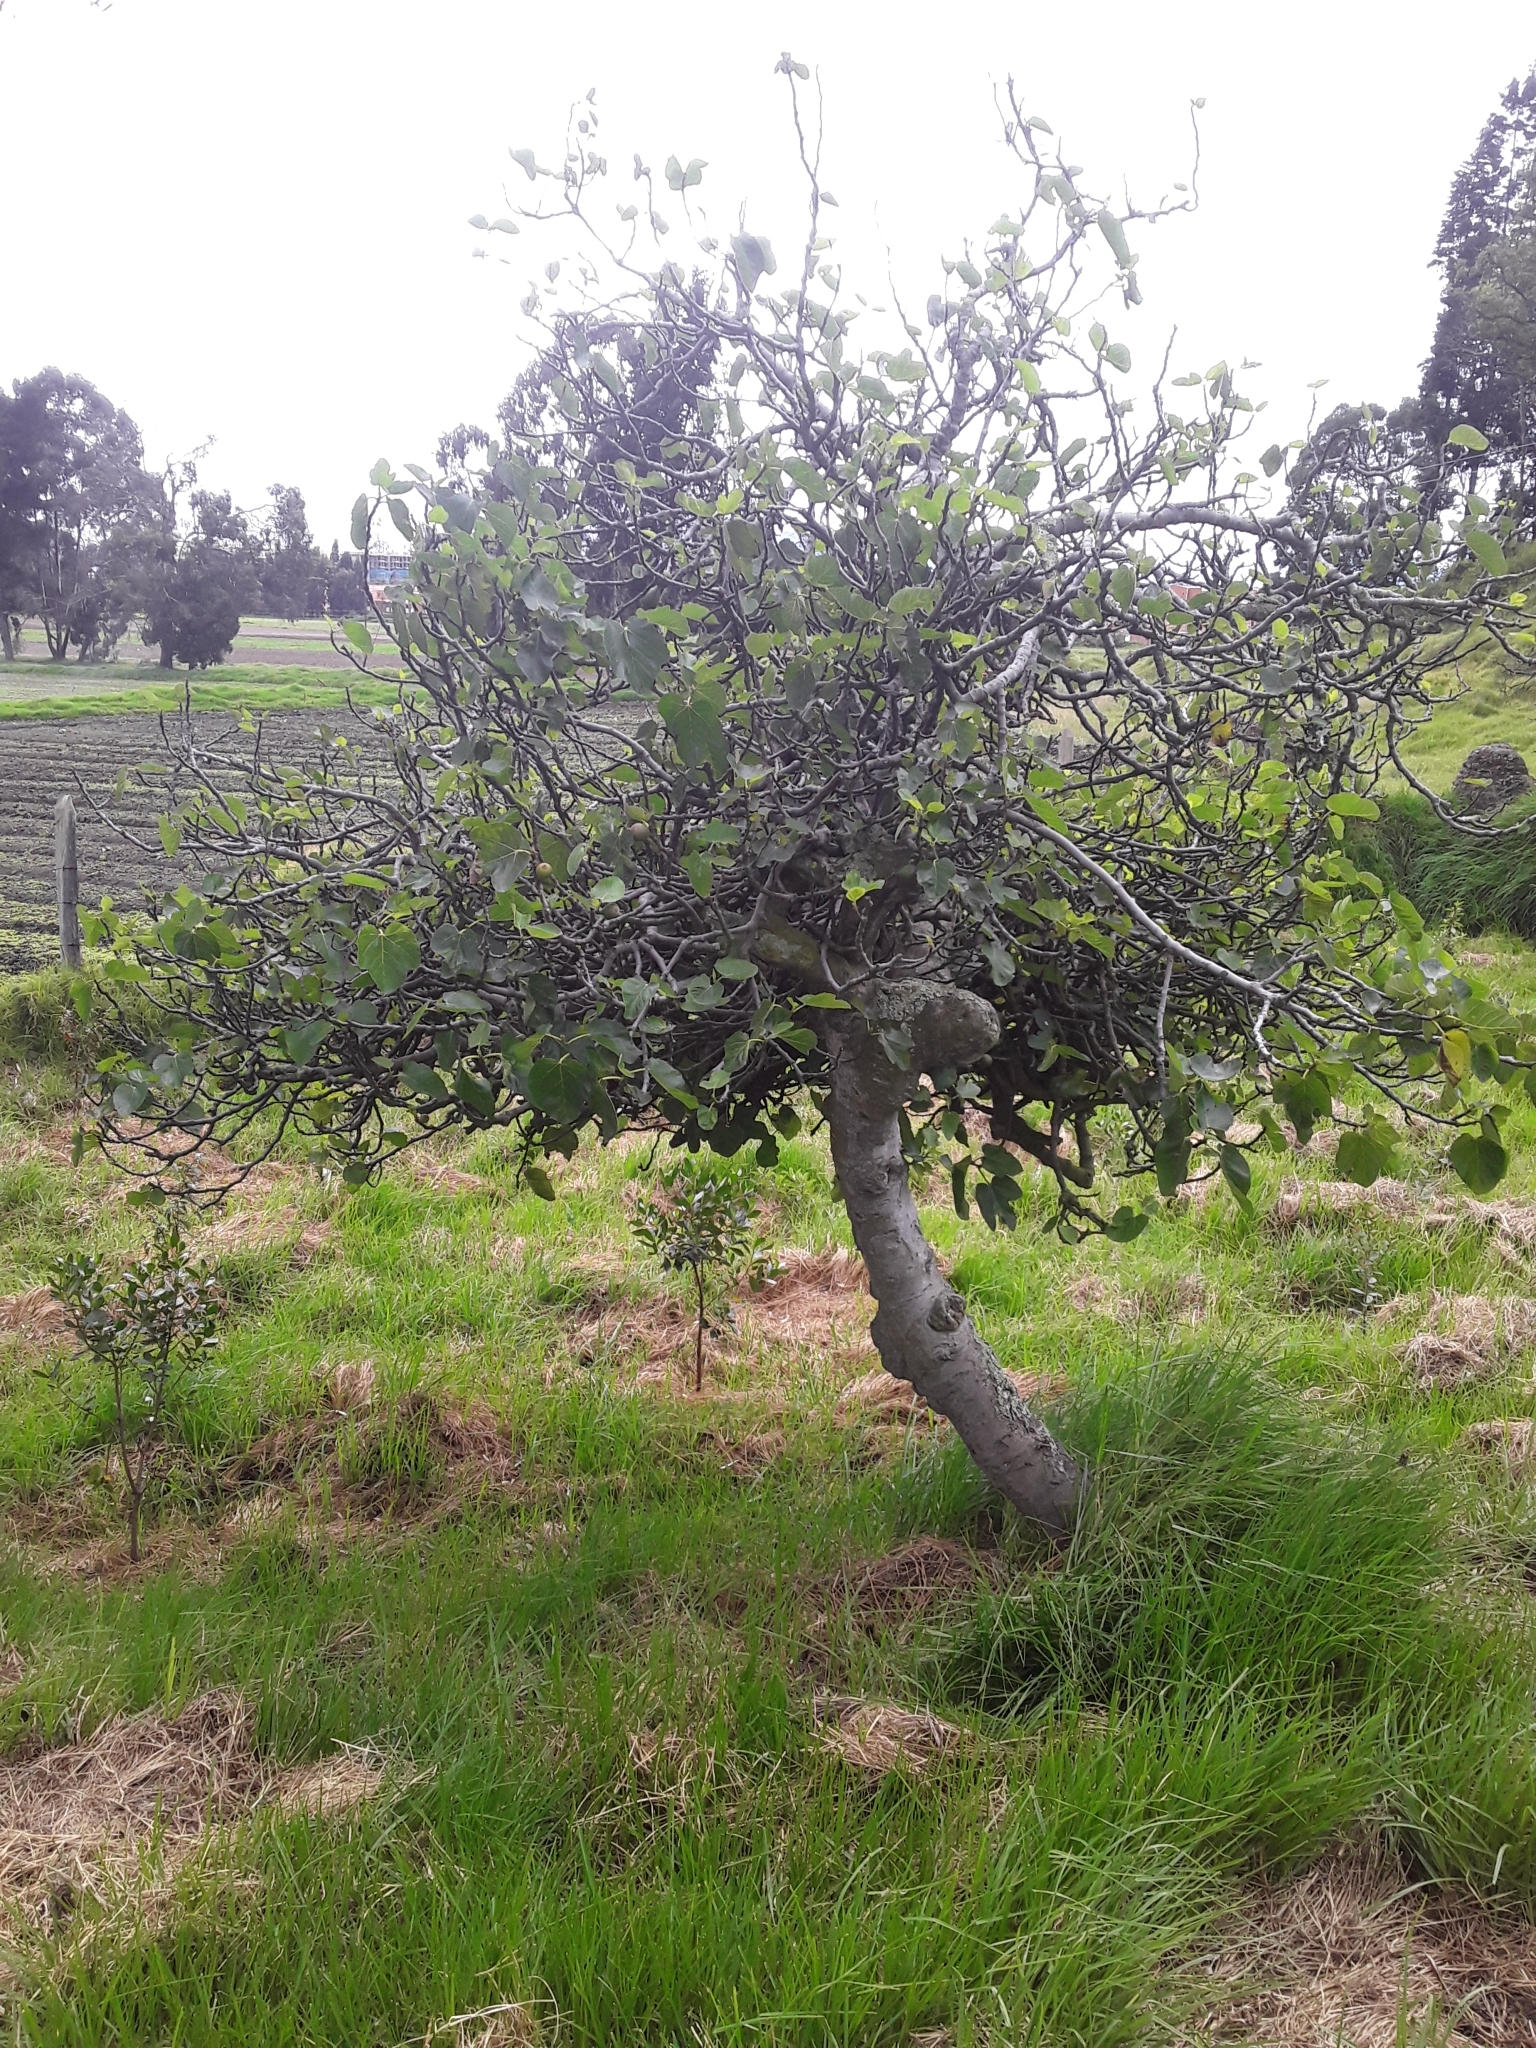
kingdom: Plantae
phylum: Tracheophyta
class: Magnoliopsida
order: Rosales
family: Moraceae
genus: Ficus
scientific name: Ficus carica
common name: Fig
